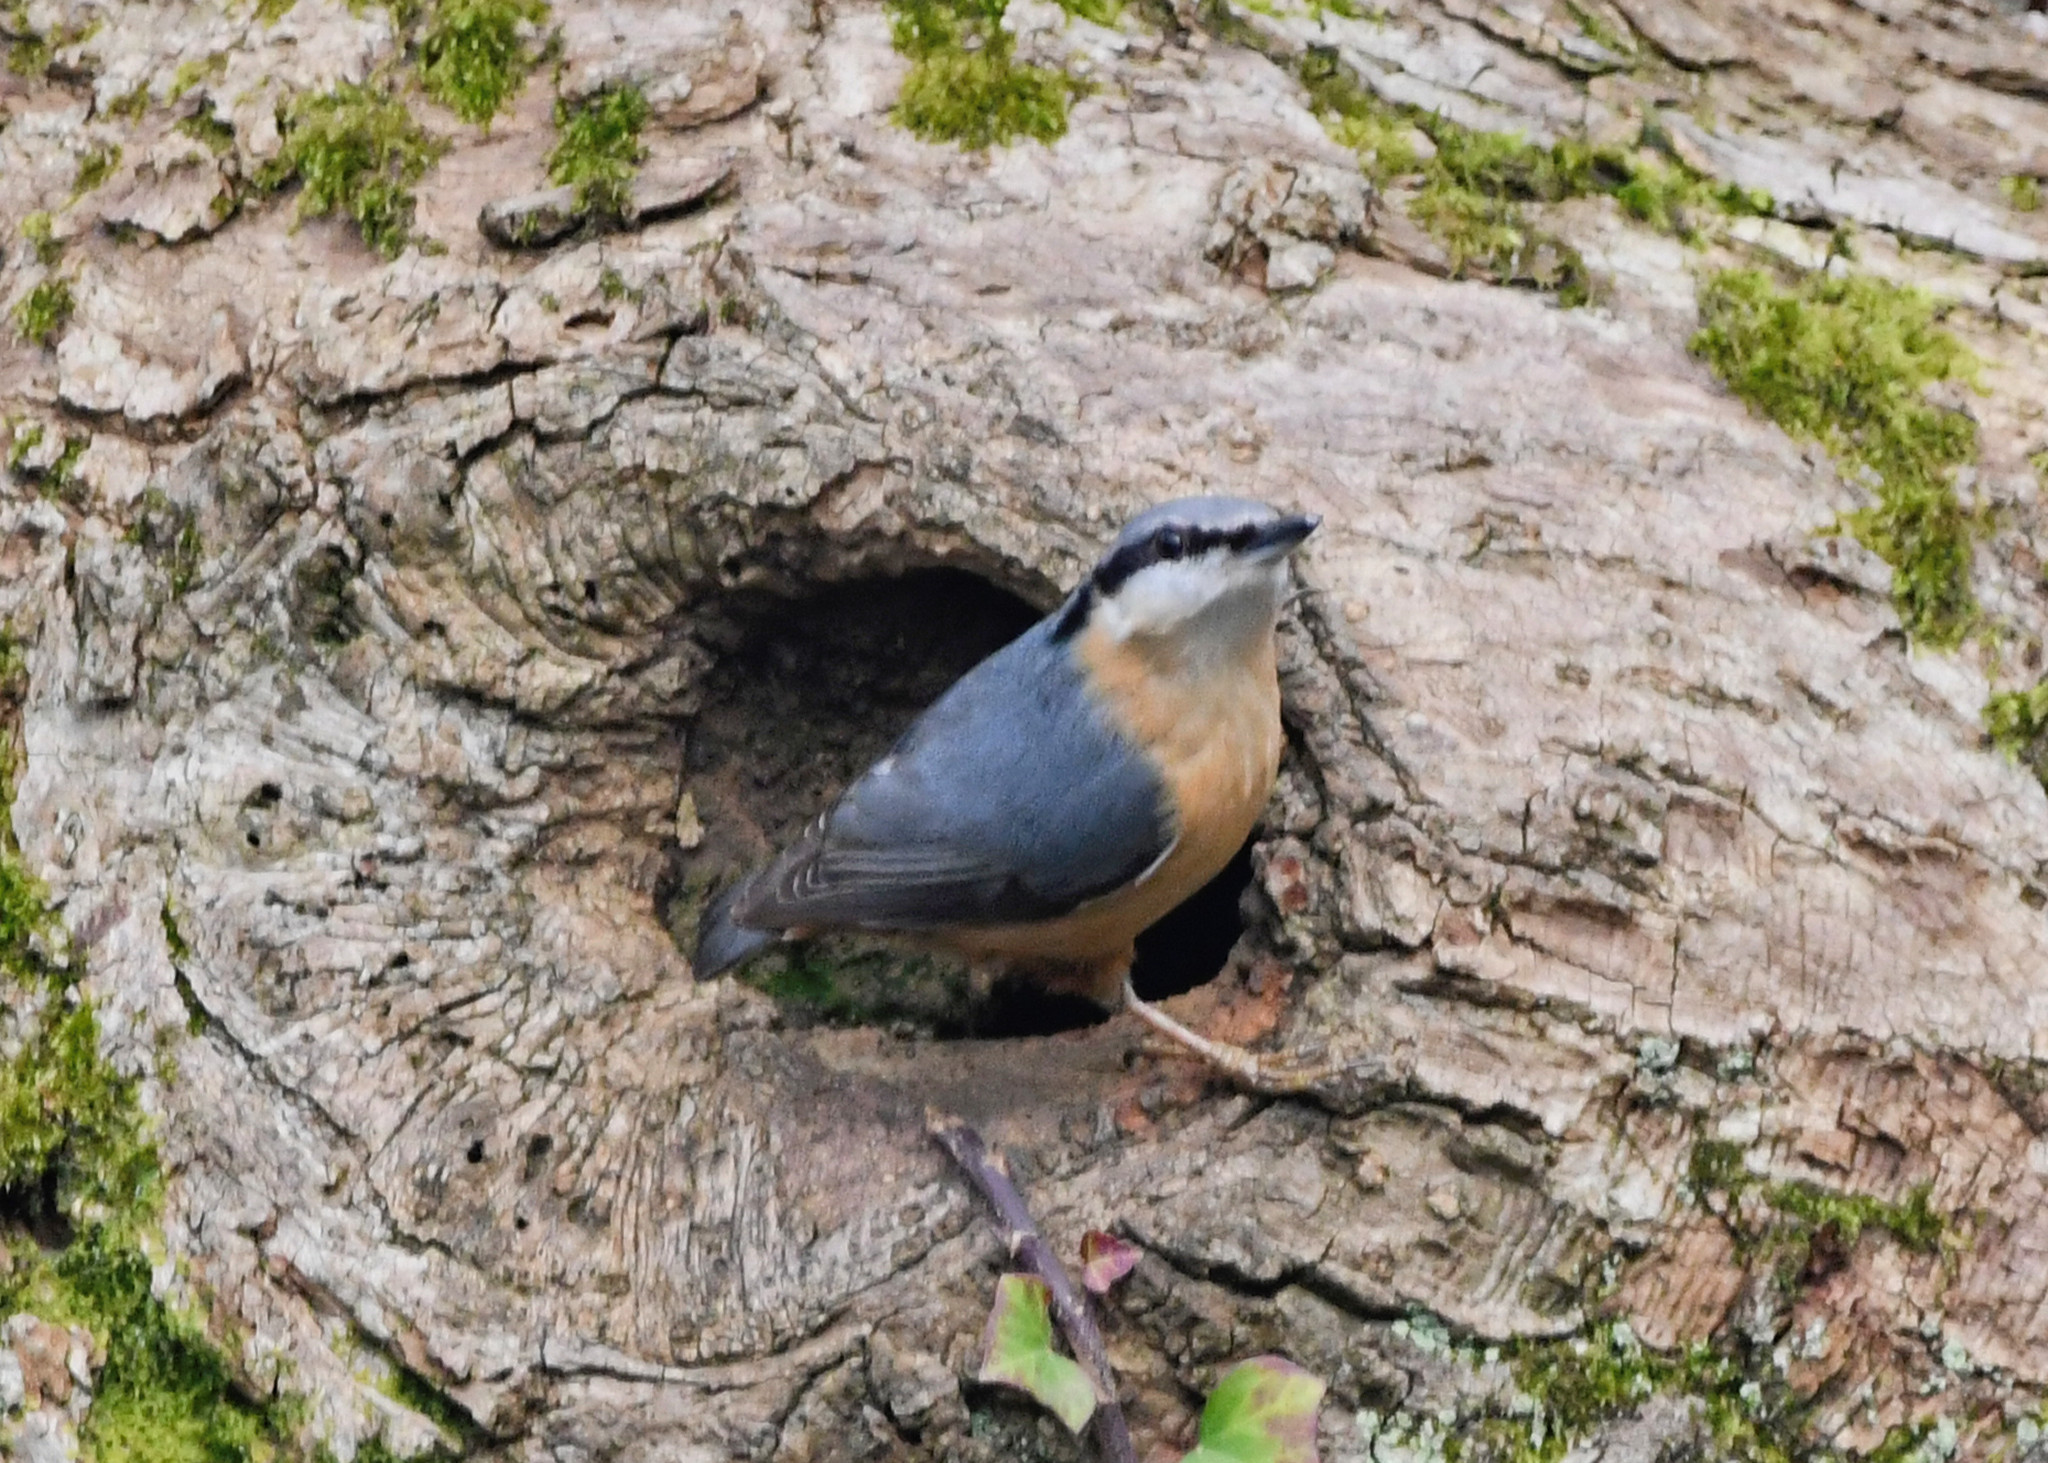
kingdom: Animalia
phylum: Chordata
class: Aves
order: Passeriformes
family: Sittidae
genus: Sitta
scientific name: Sitta europaea
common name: Eurasian nuthatch
